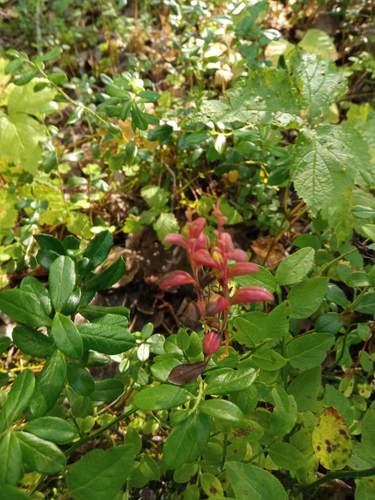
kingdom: Fungi
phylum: Basidiomycota
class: Exobasidiomycetes
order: Exobasidiales
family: Exobasidiaceae
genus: Exobasidium
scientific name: Exobasidium splendidum
